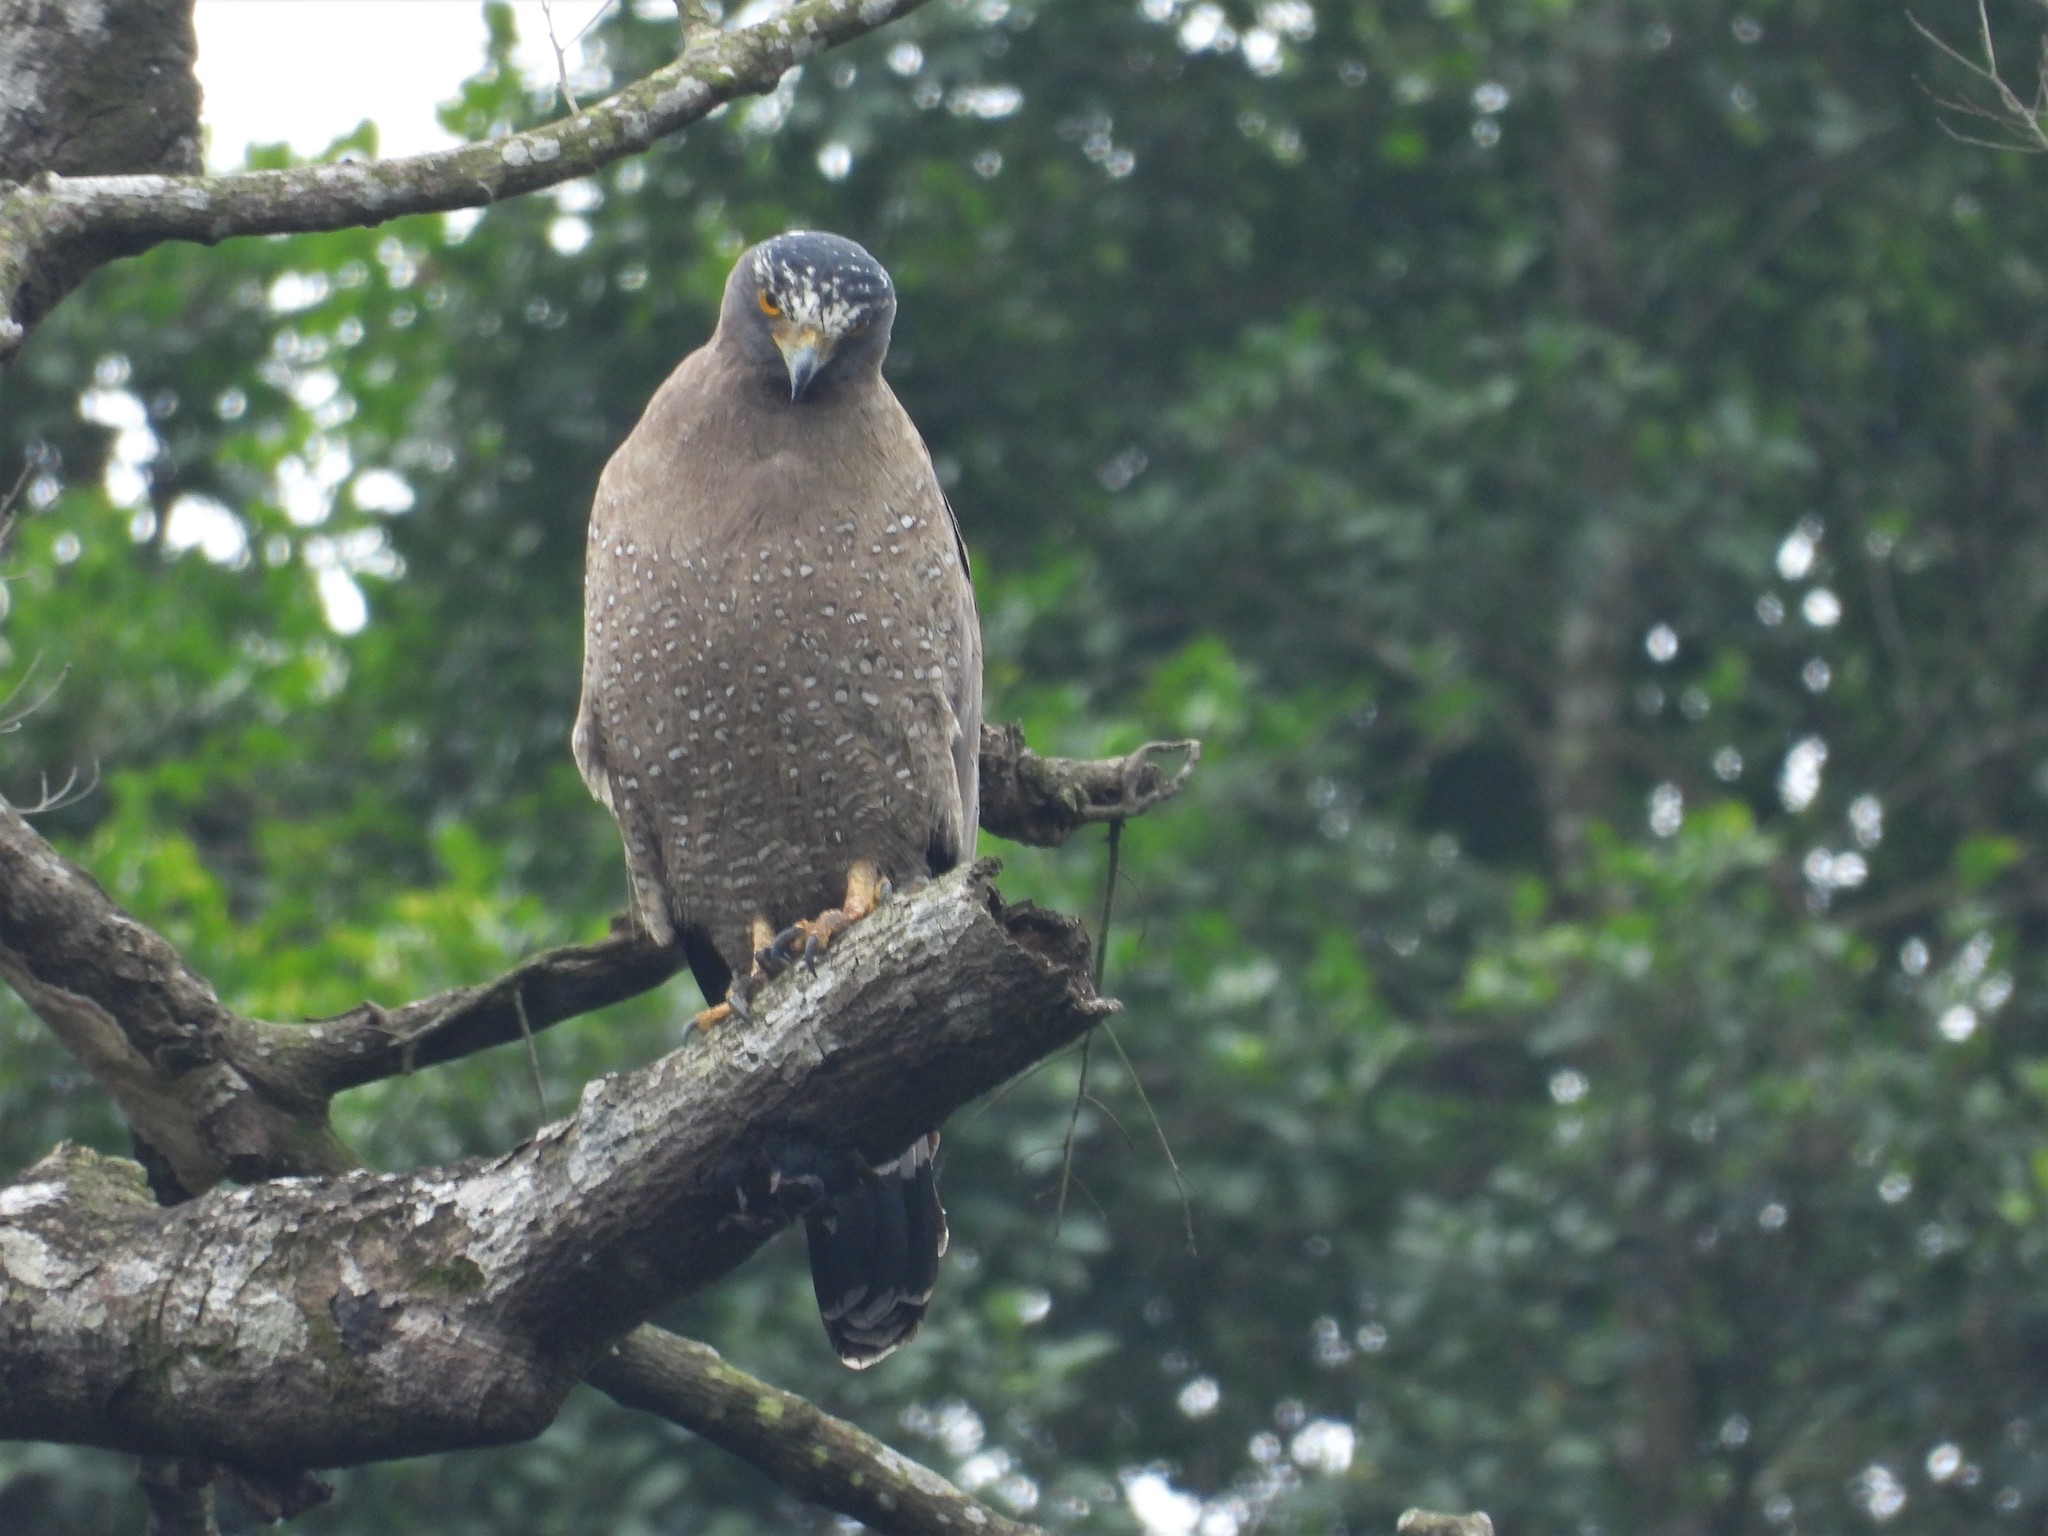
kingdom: Animalia
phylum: Chordata
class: Aves
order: Accipitriformes
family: Accipitridae
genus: Spilornis
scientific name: Spilornis cheela
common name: Crested serpent eagle
